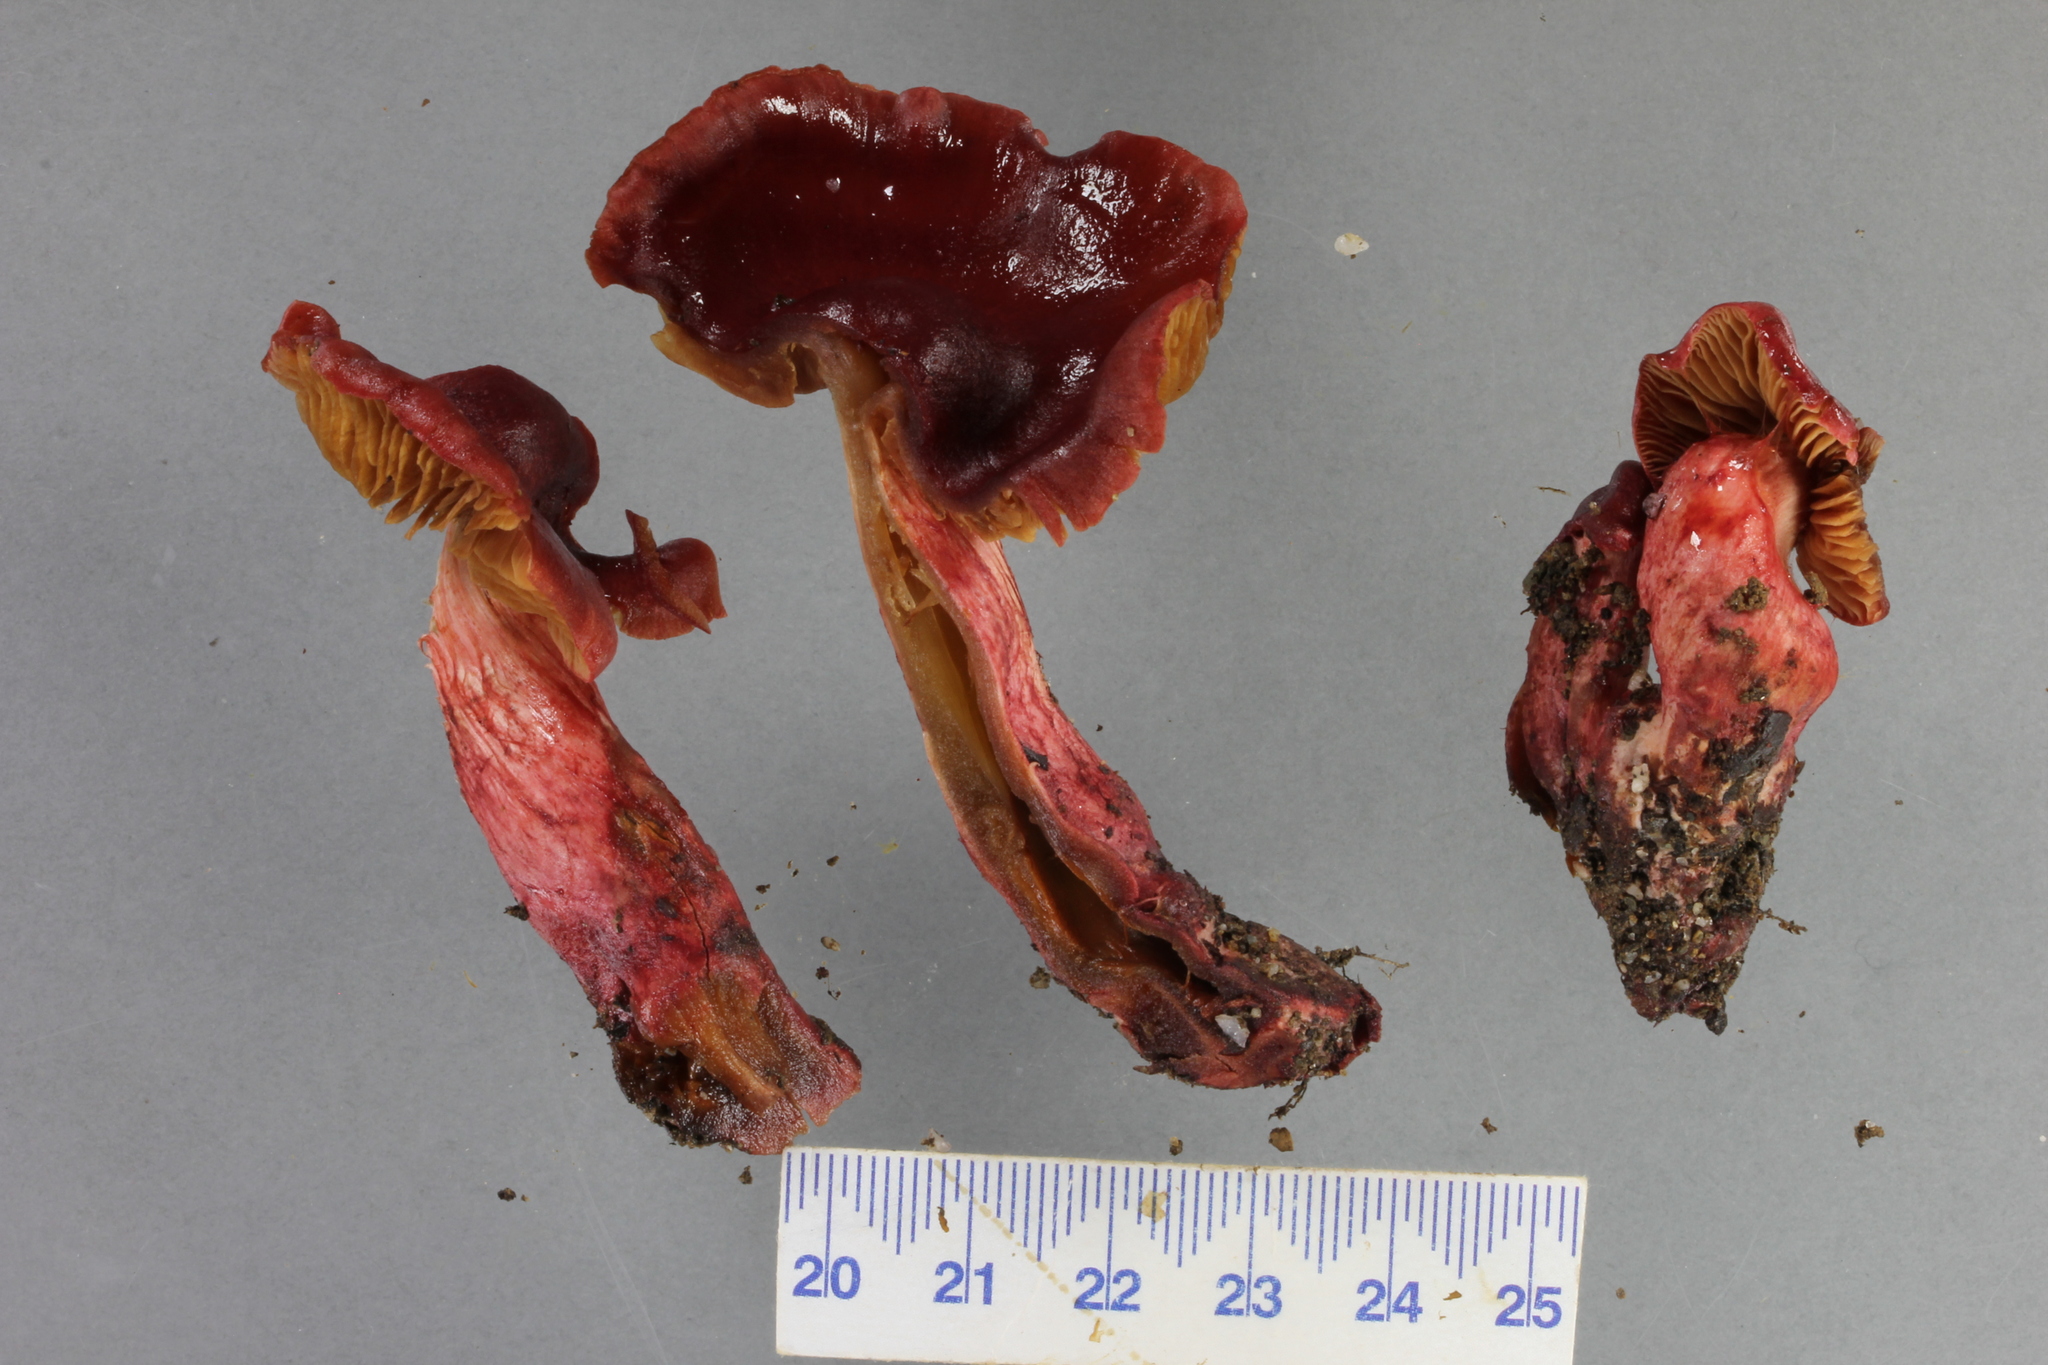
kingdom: Fungi
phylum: Basidiomycota
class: Agaricomycetes
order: Agaricales
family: Cortinariaceae
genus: Cortinarius
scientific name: Cortinarius cardinalis
